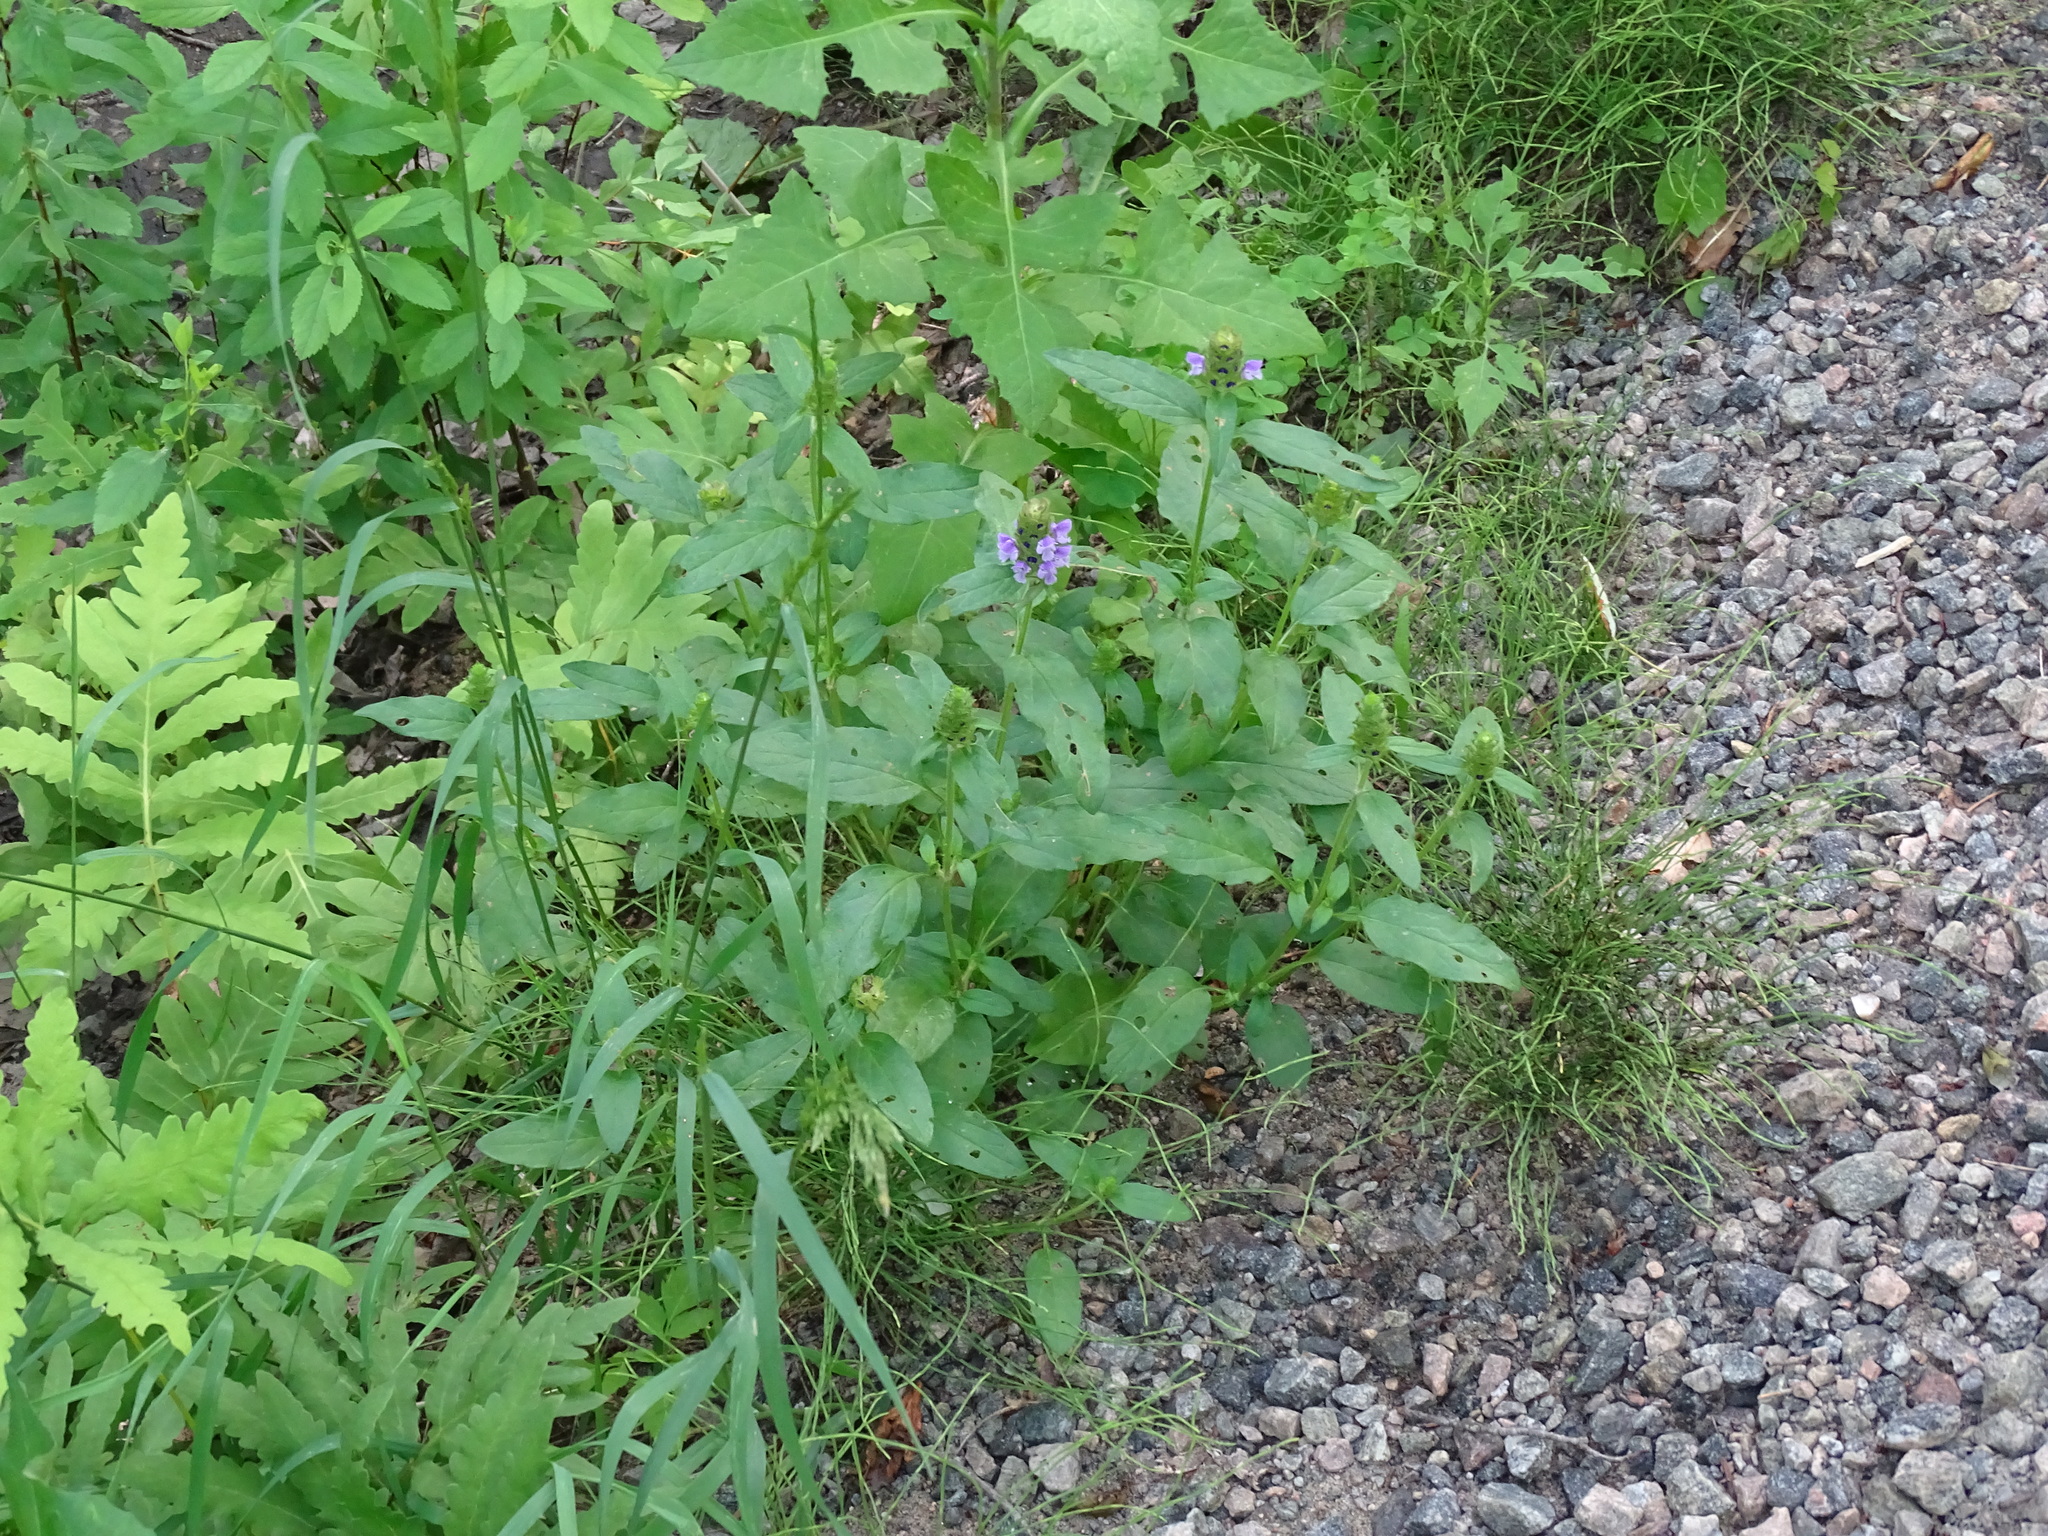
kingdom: Plantae
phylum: Tracheophyta
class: Magnoliopsida
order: Lamiales
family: Lamiaceae
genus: Prunella
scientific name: Prunella vulgaris
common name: Heal-all
